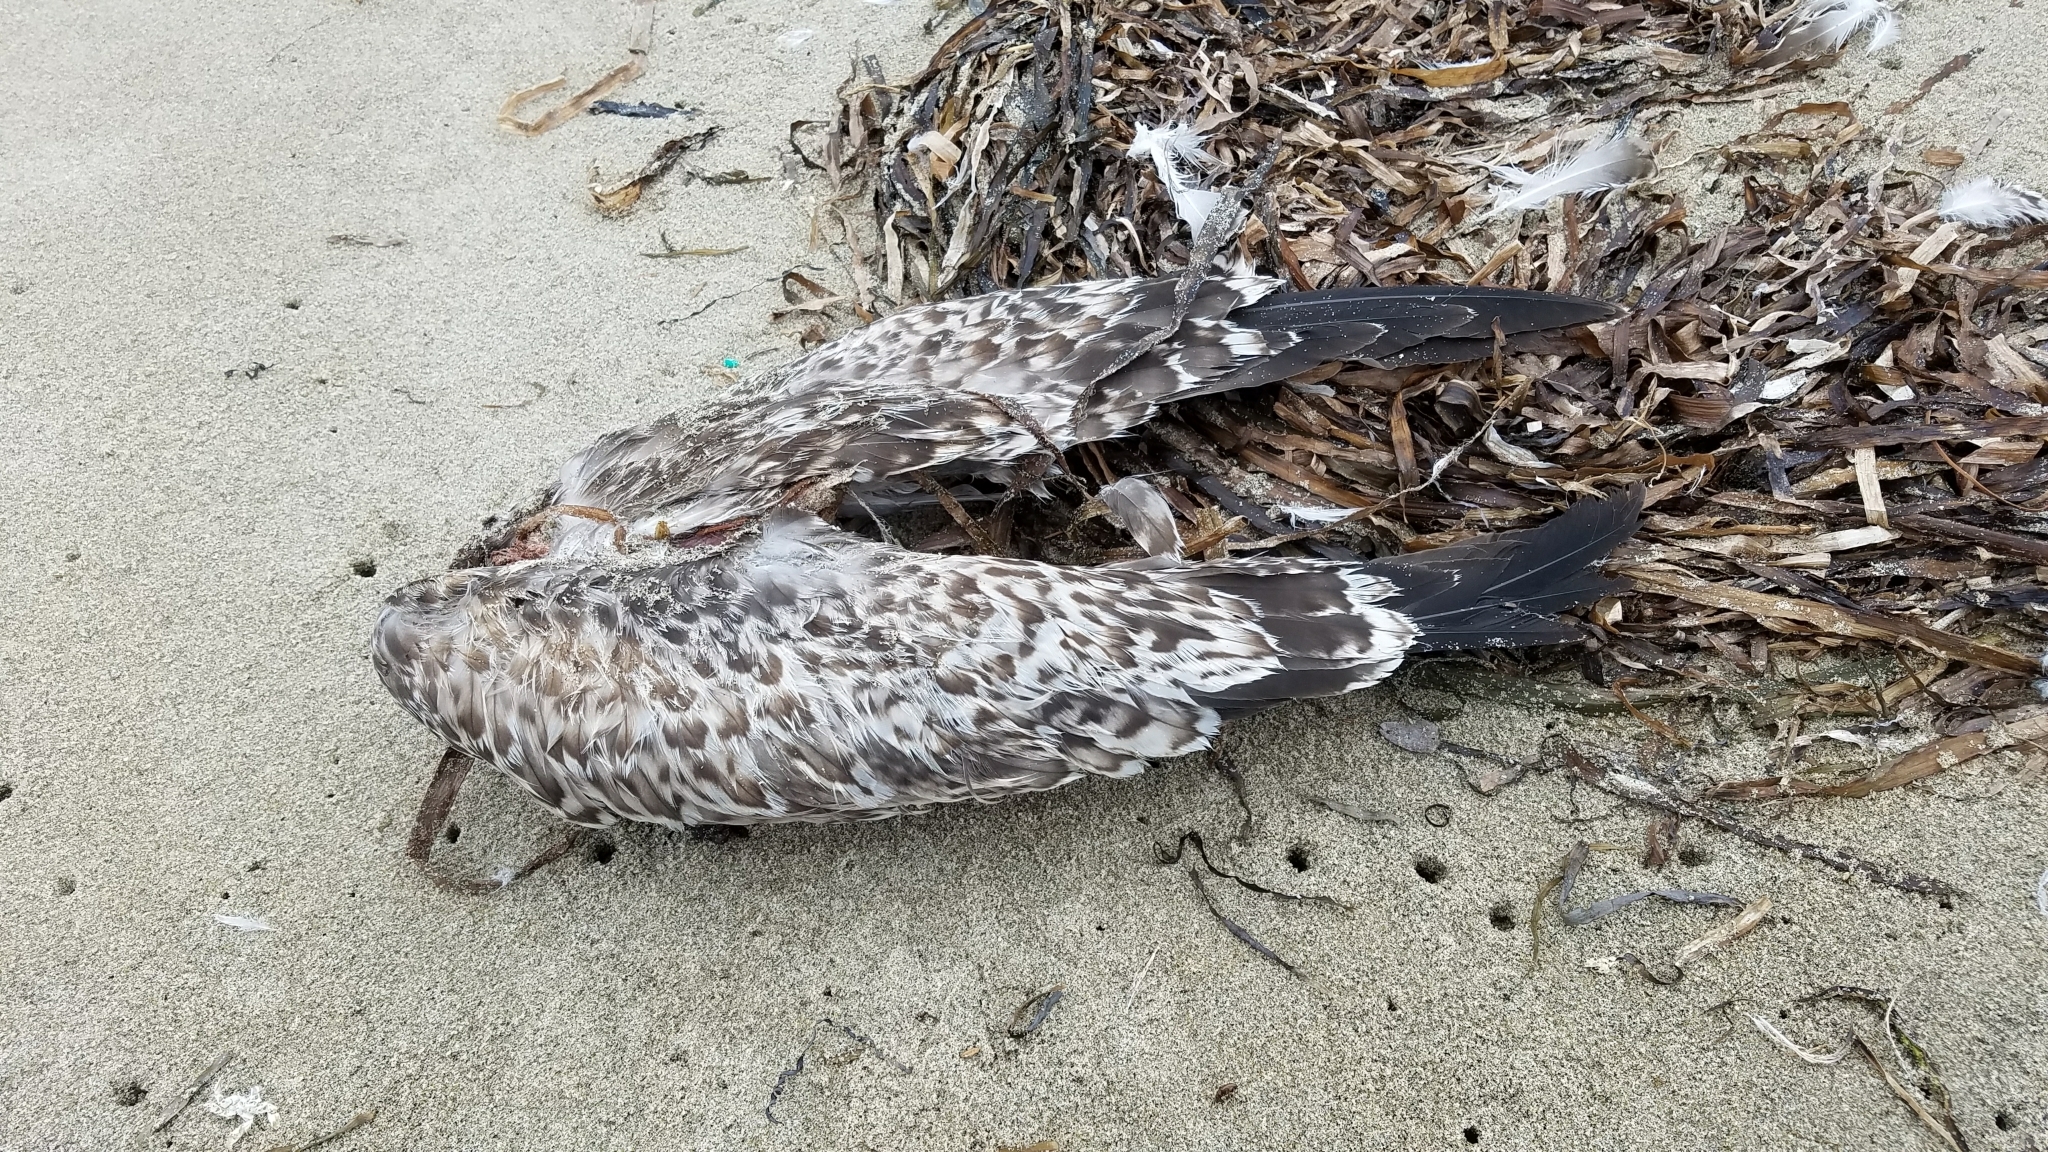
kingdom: Animalia
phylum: Chordata
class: Aves
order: Charadriiformes
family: Laridae
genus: Larus
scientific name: Larus californicus
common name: California gull
